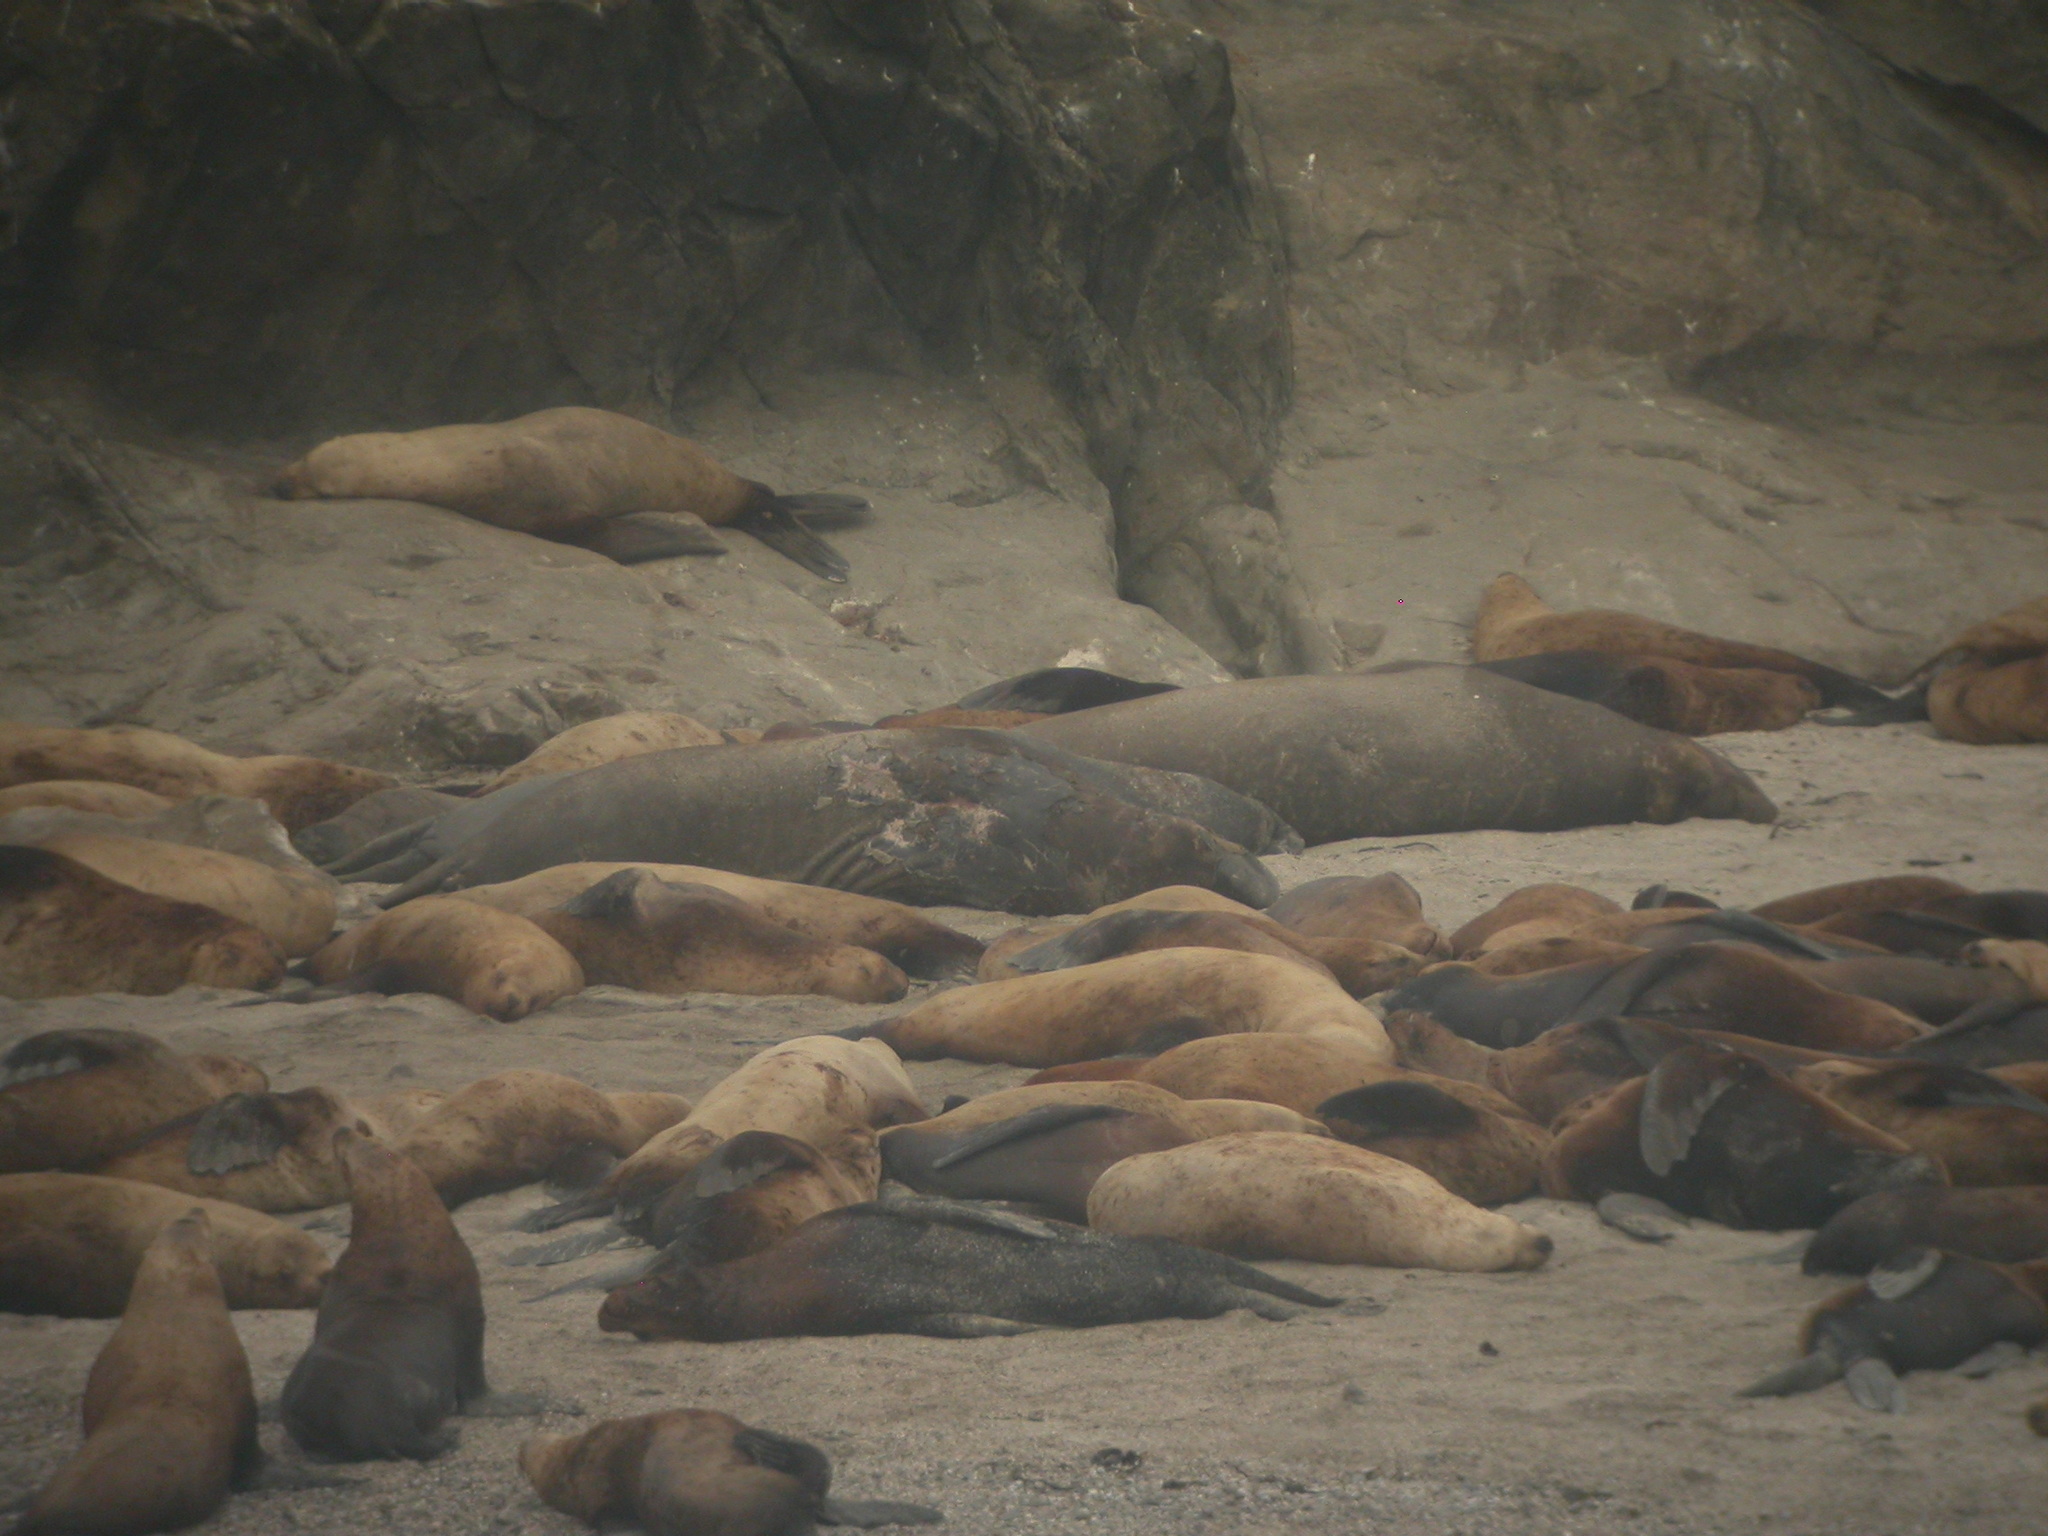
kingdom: Animalia
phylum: Chordata
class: Mammalia
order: Carnivora
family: Phocidae
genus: Mirounga
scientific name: Mirounga angustirostris
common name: Northern elephant seal
